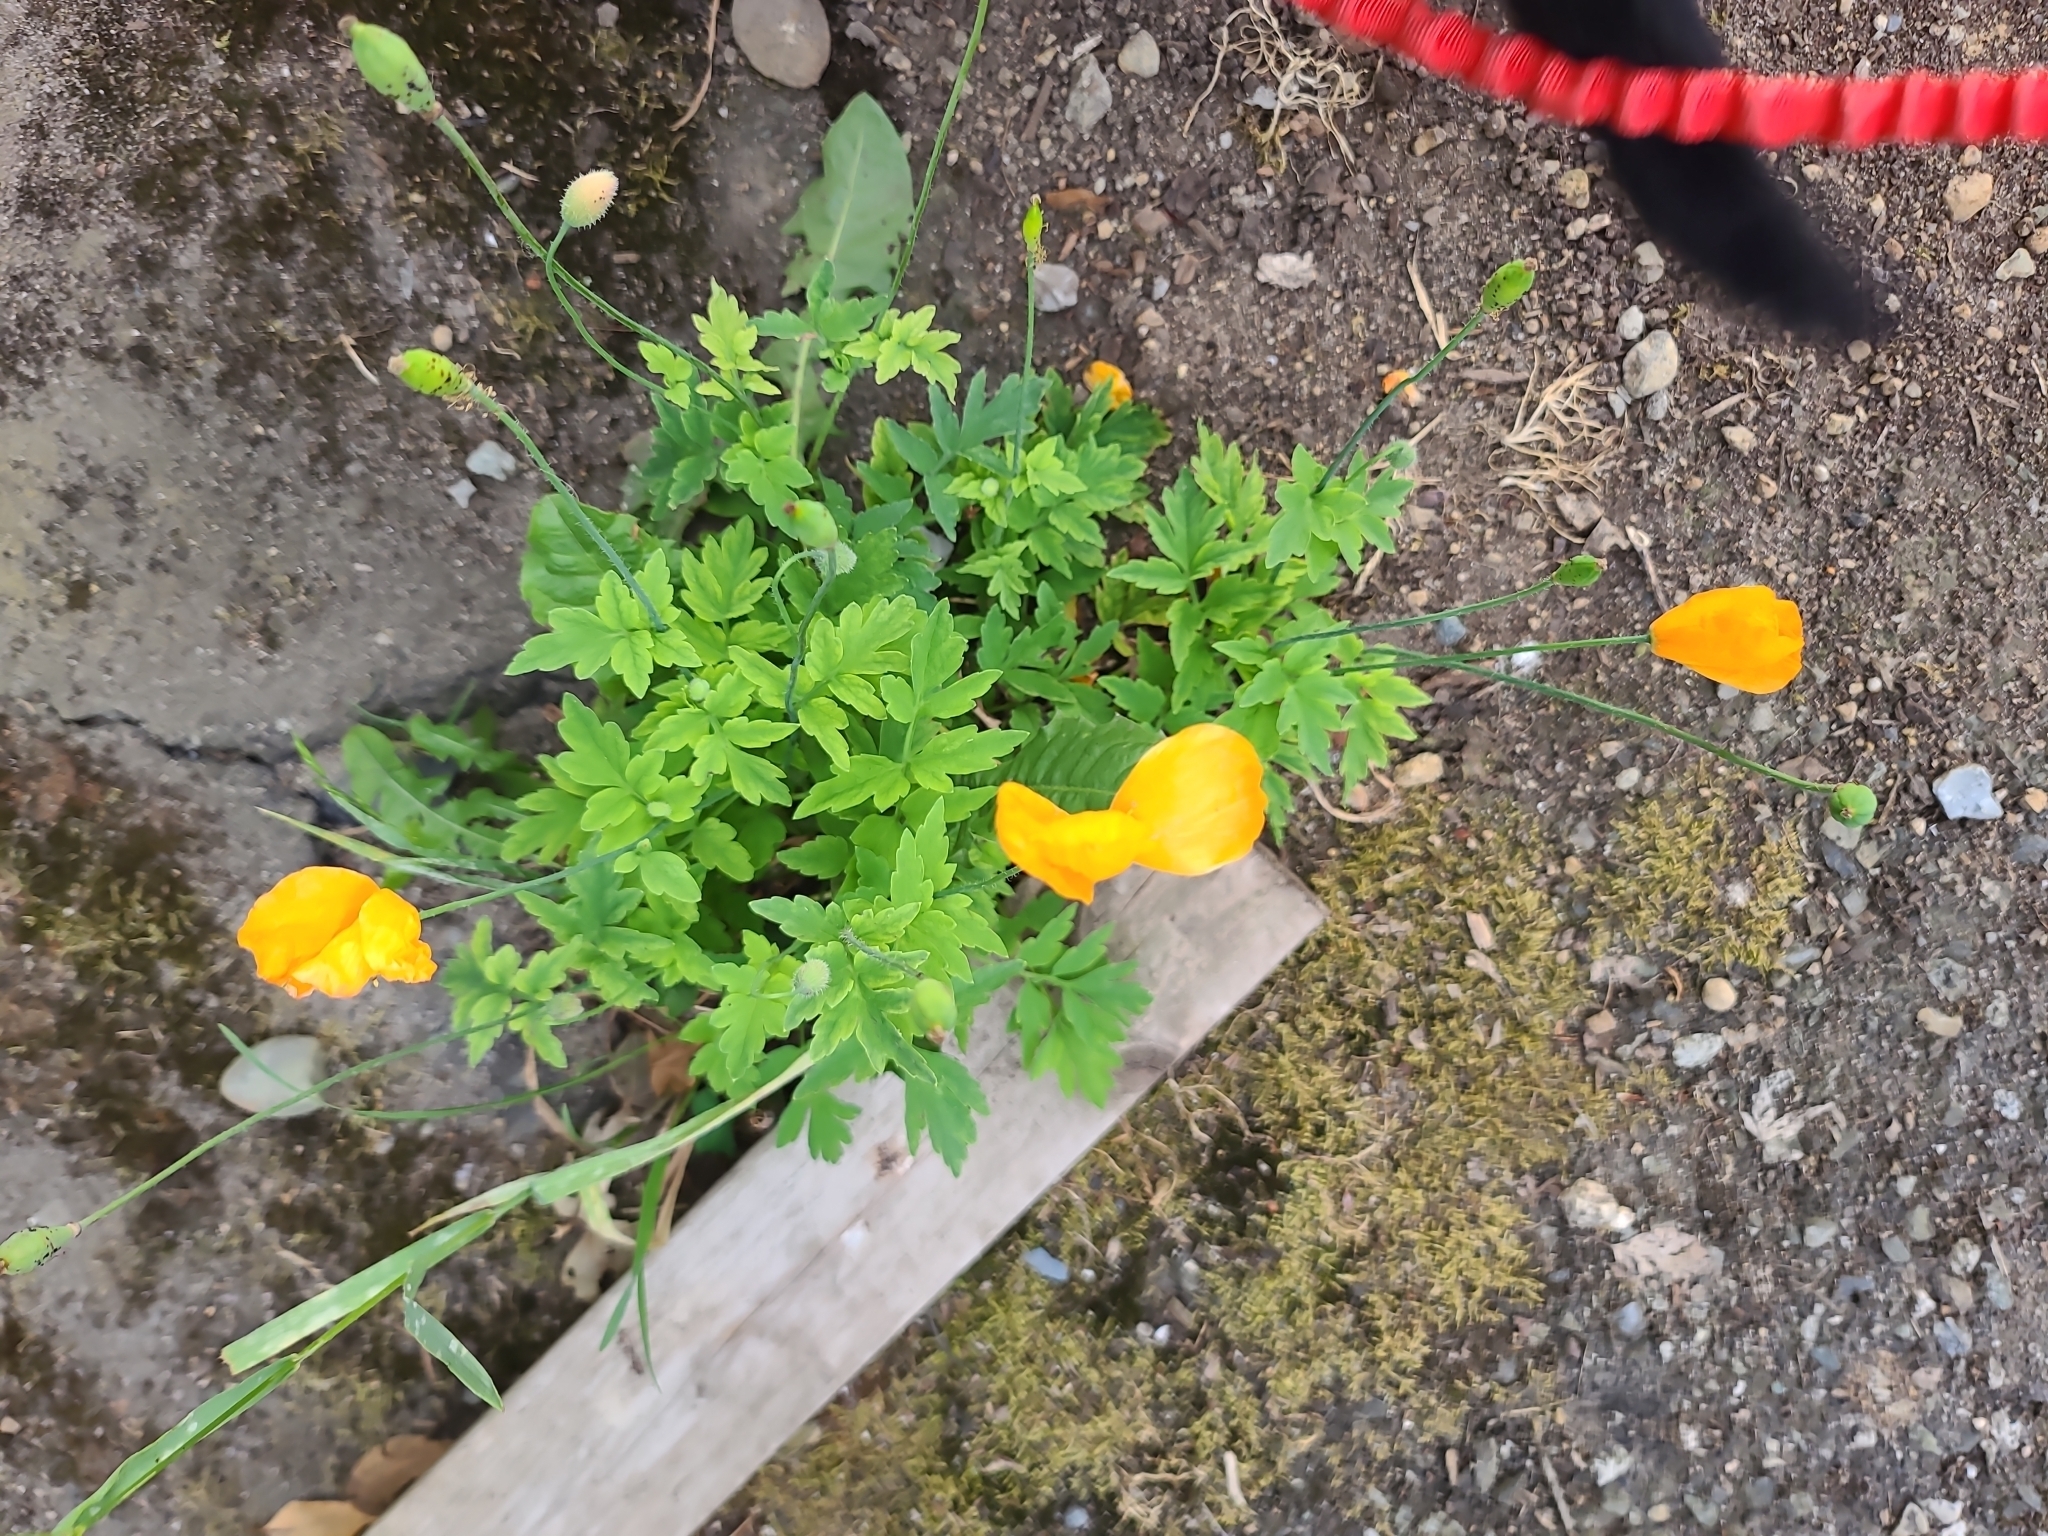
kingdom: Plantae
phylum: Tracheophyta
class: Magnoliopsida
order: Ranunculales
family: Papaveraceae
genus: Papaver
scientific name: Papaver cambricum
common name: Poppy
